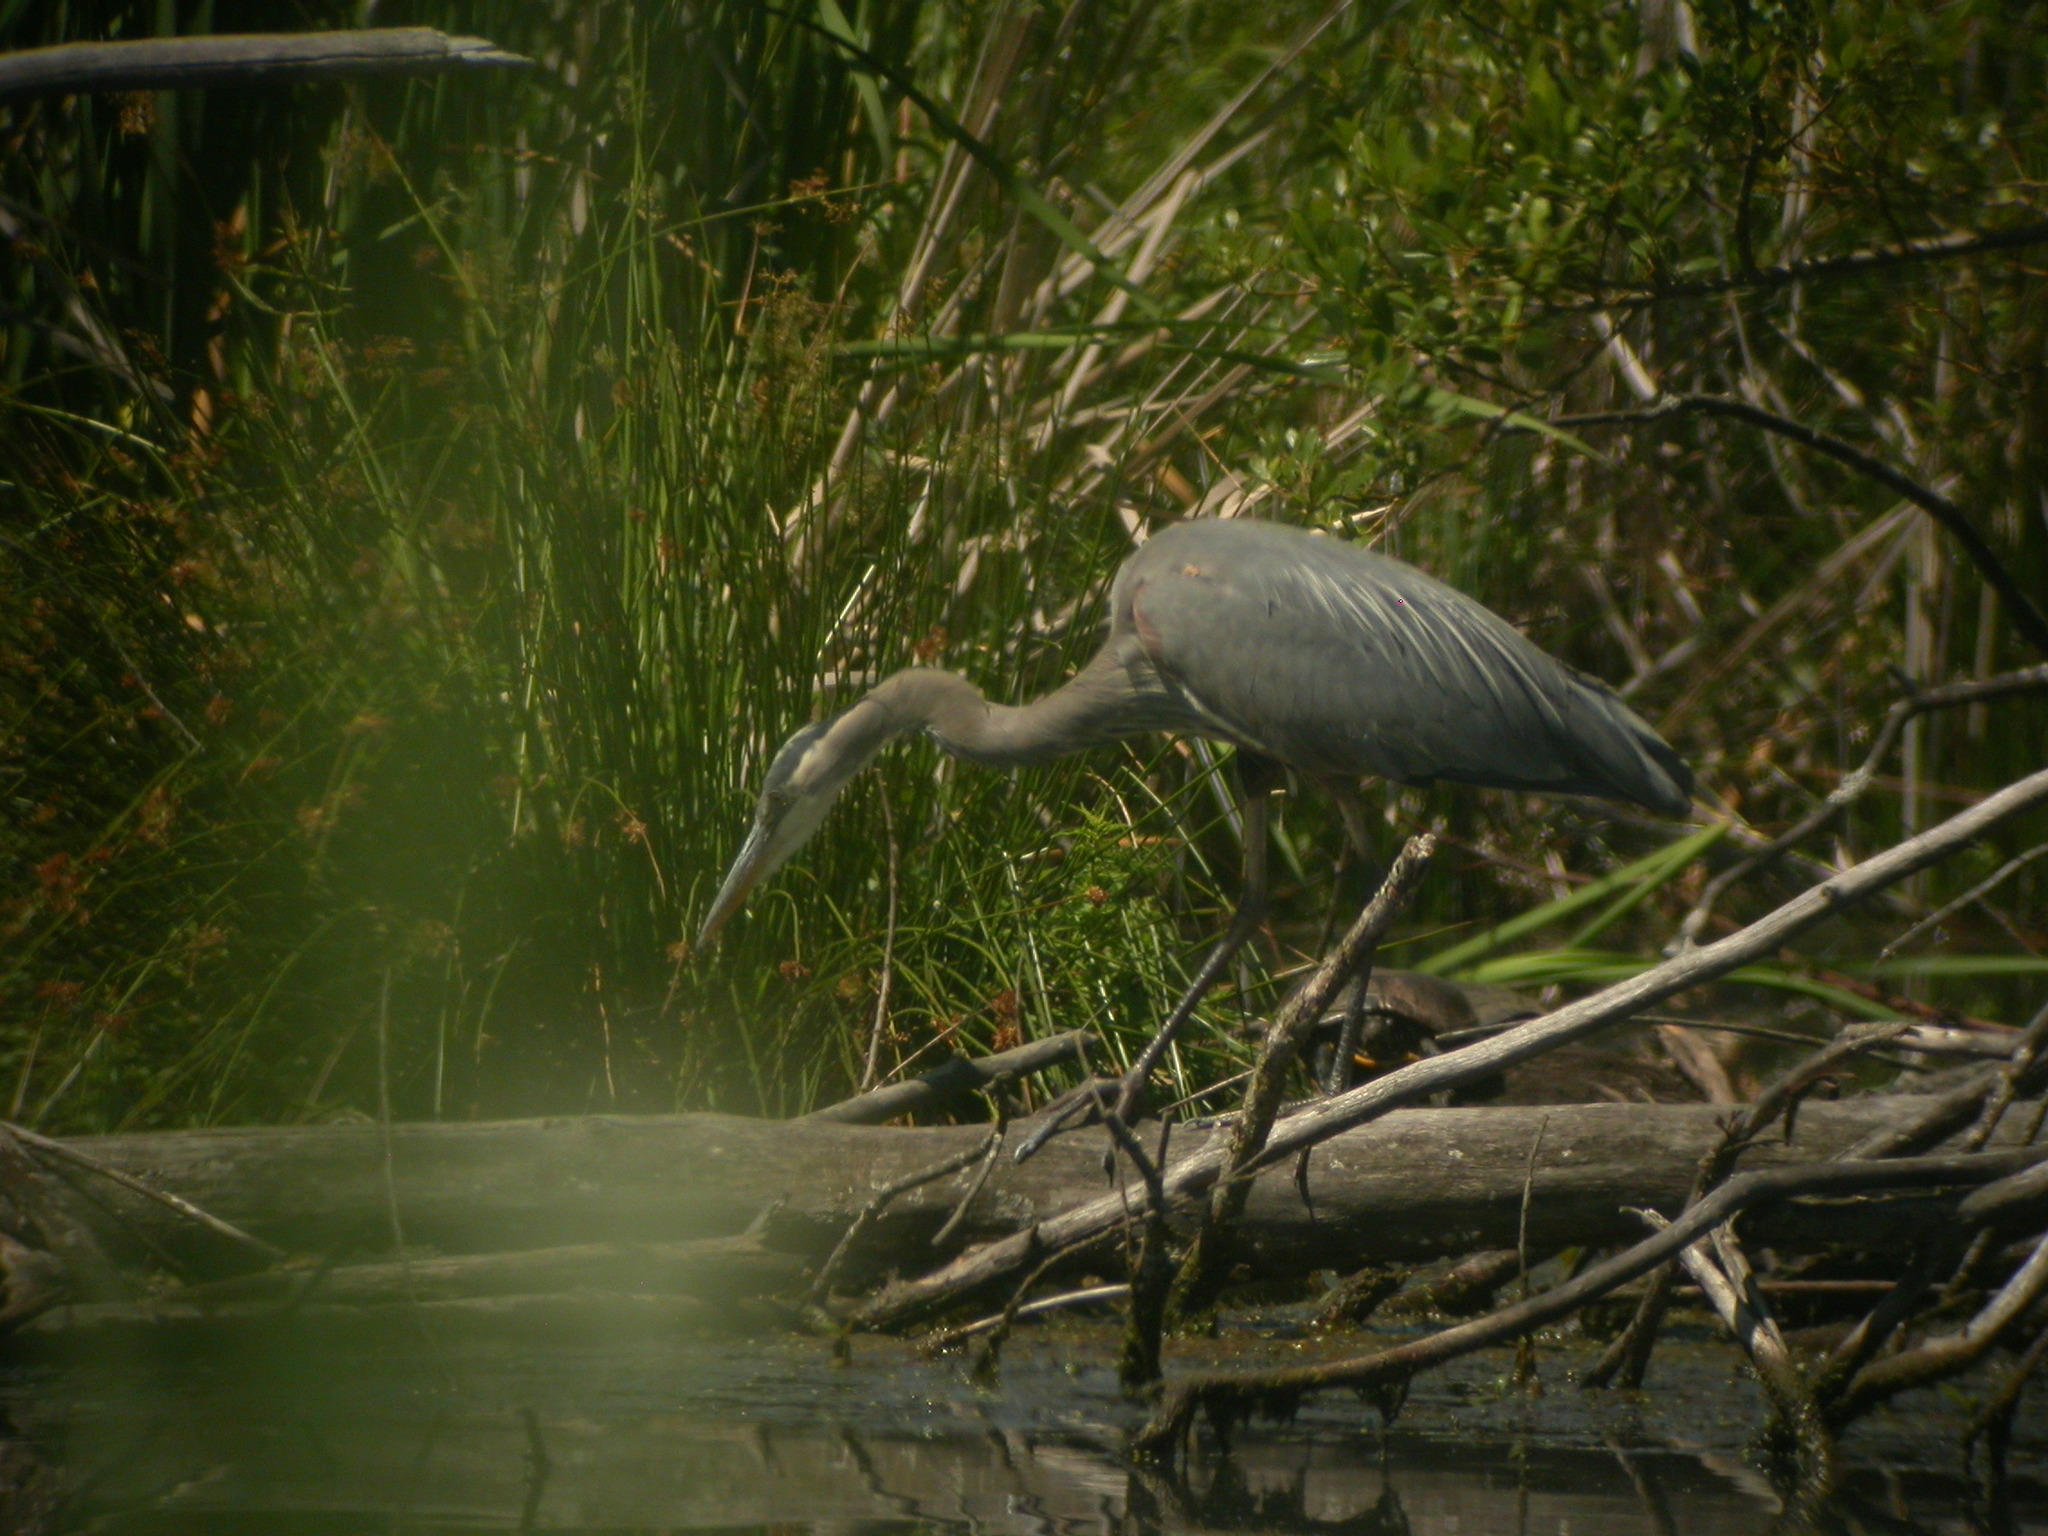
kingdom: Animalia
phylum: Chordata
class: Aves
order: Pelecaniformes
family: Ardeidae
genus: Ardea
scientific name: Ardea herodias
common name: Great blue heron
